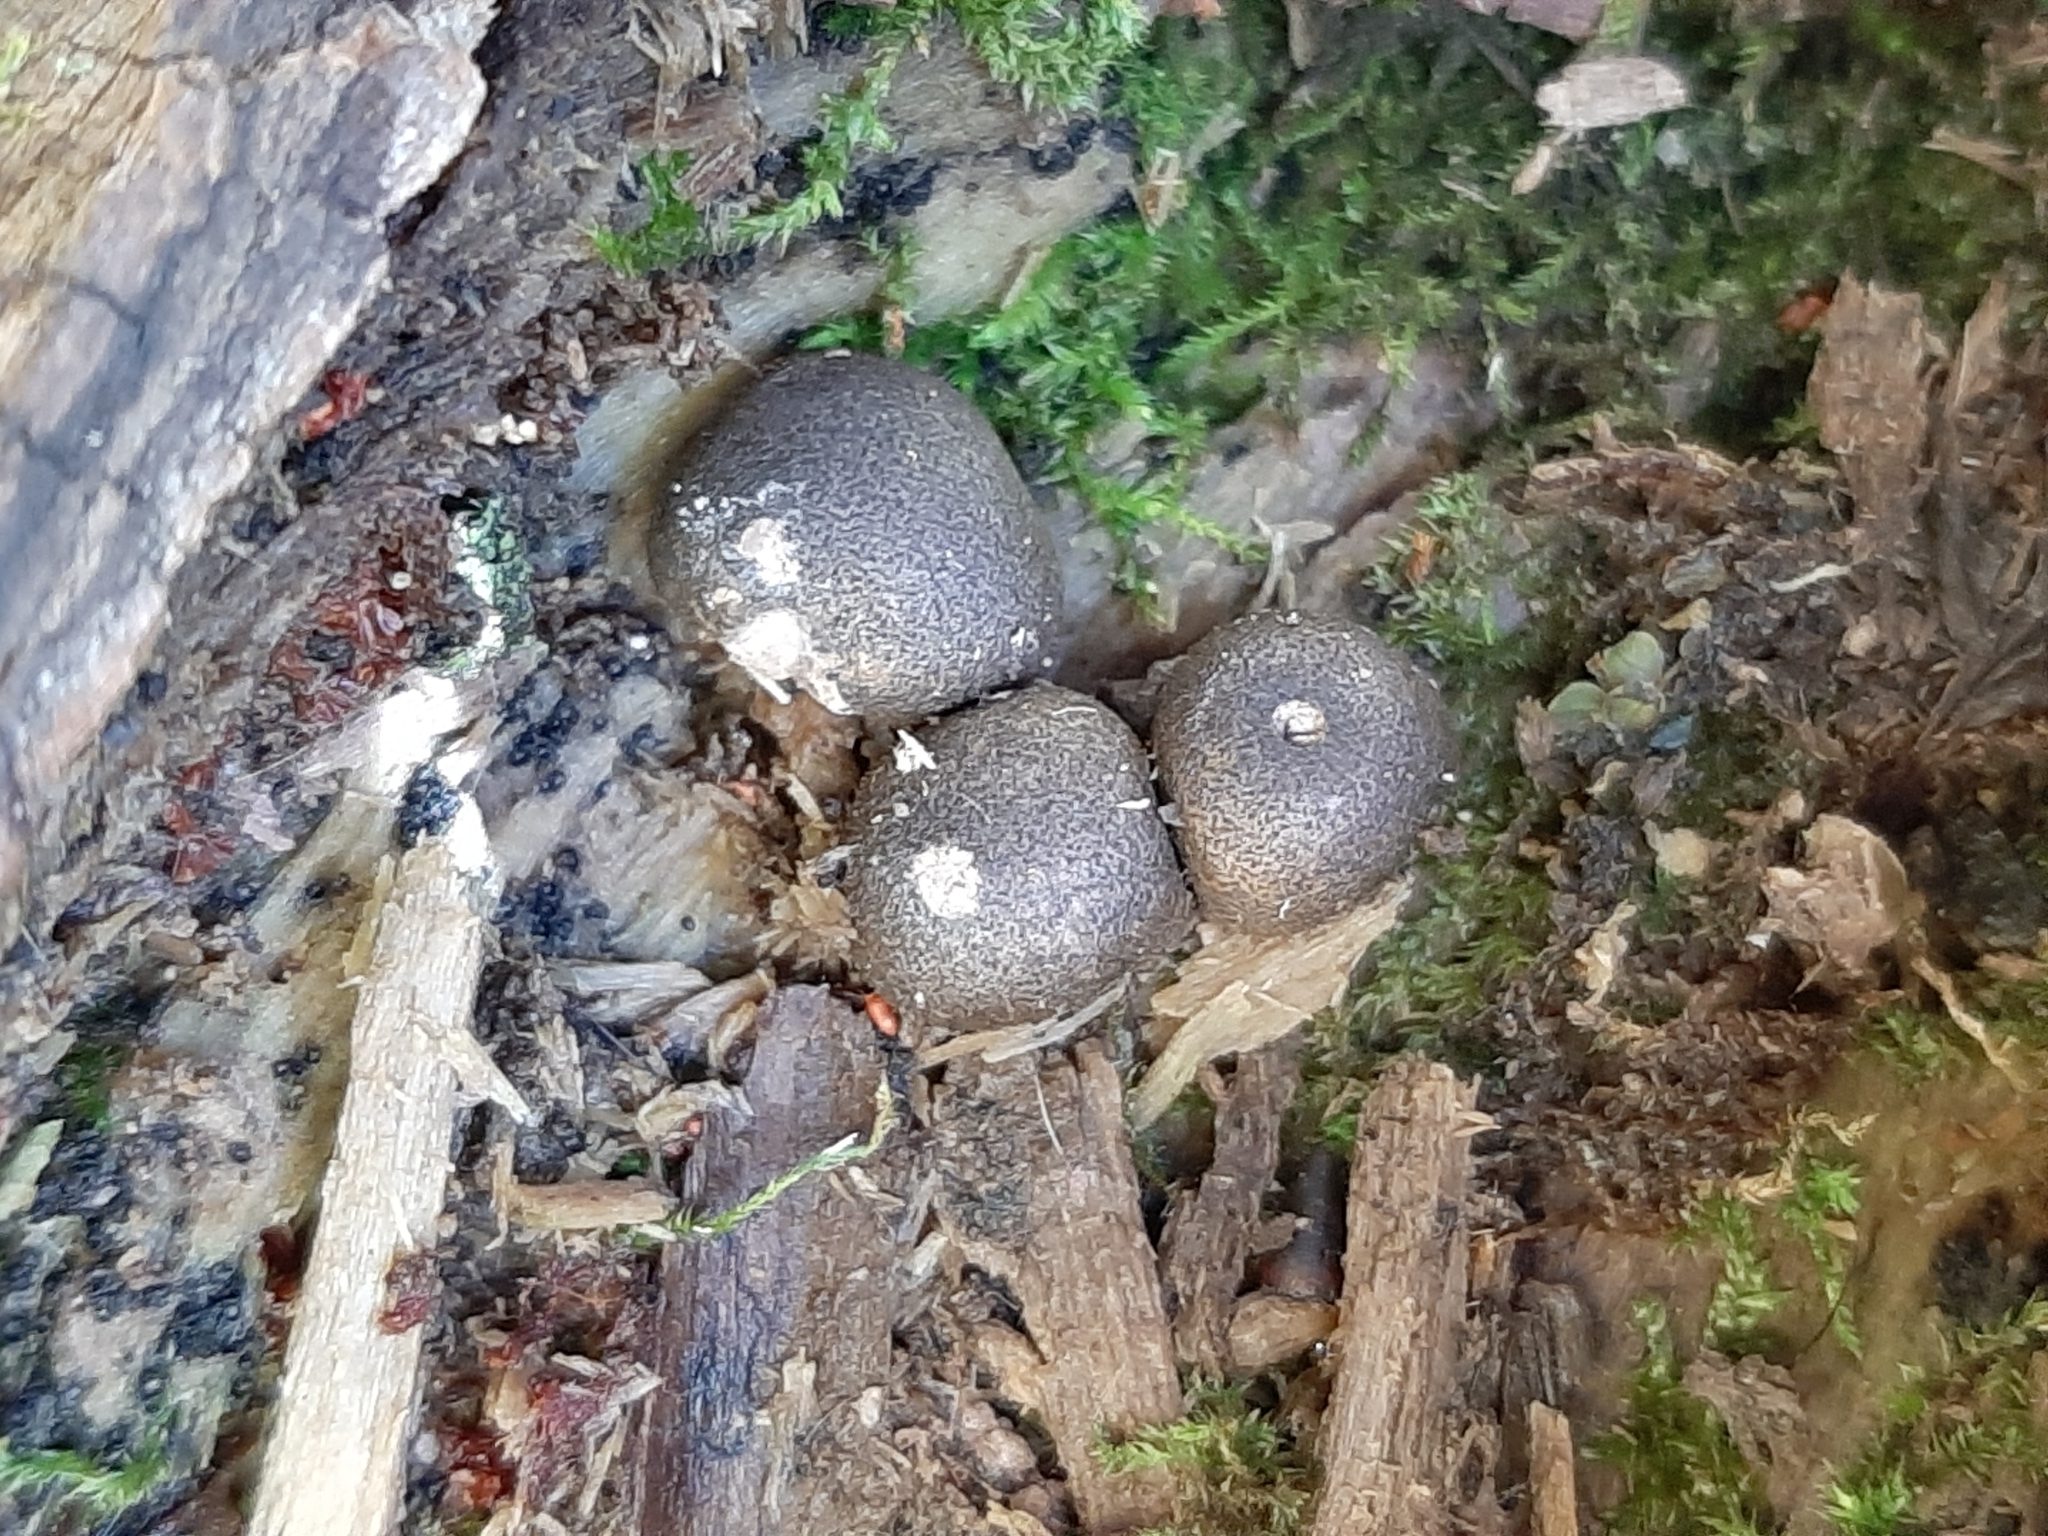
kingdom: Protozoa
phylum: Mycetozoa
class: Myxomycetes
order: Cribrariales
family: Tubiferaceae
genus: Lycogala
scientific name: Lycogala epidendrum
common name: Wolf's milk
